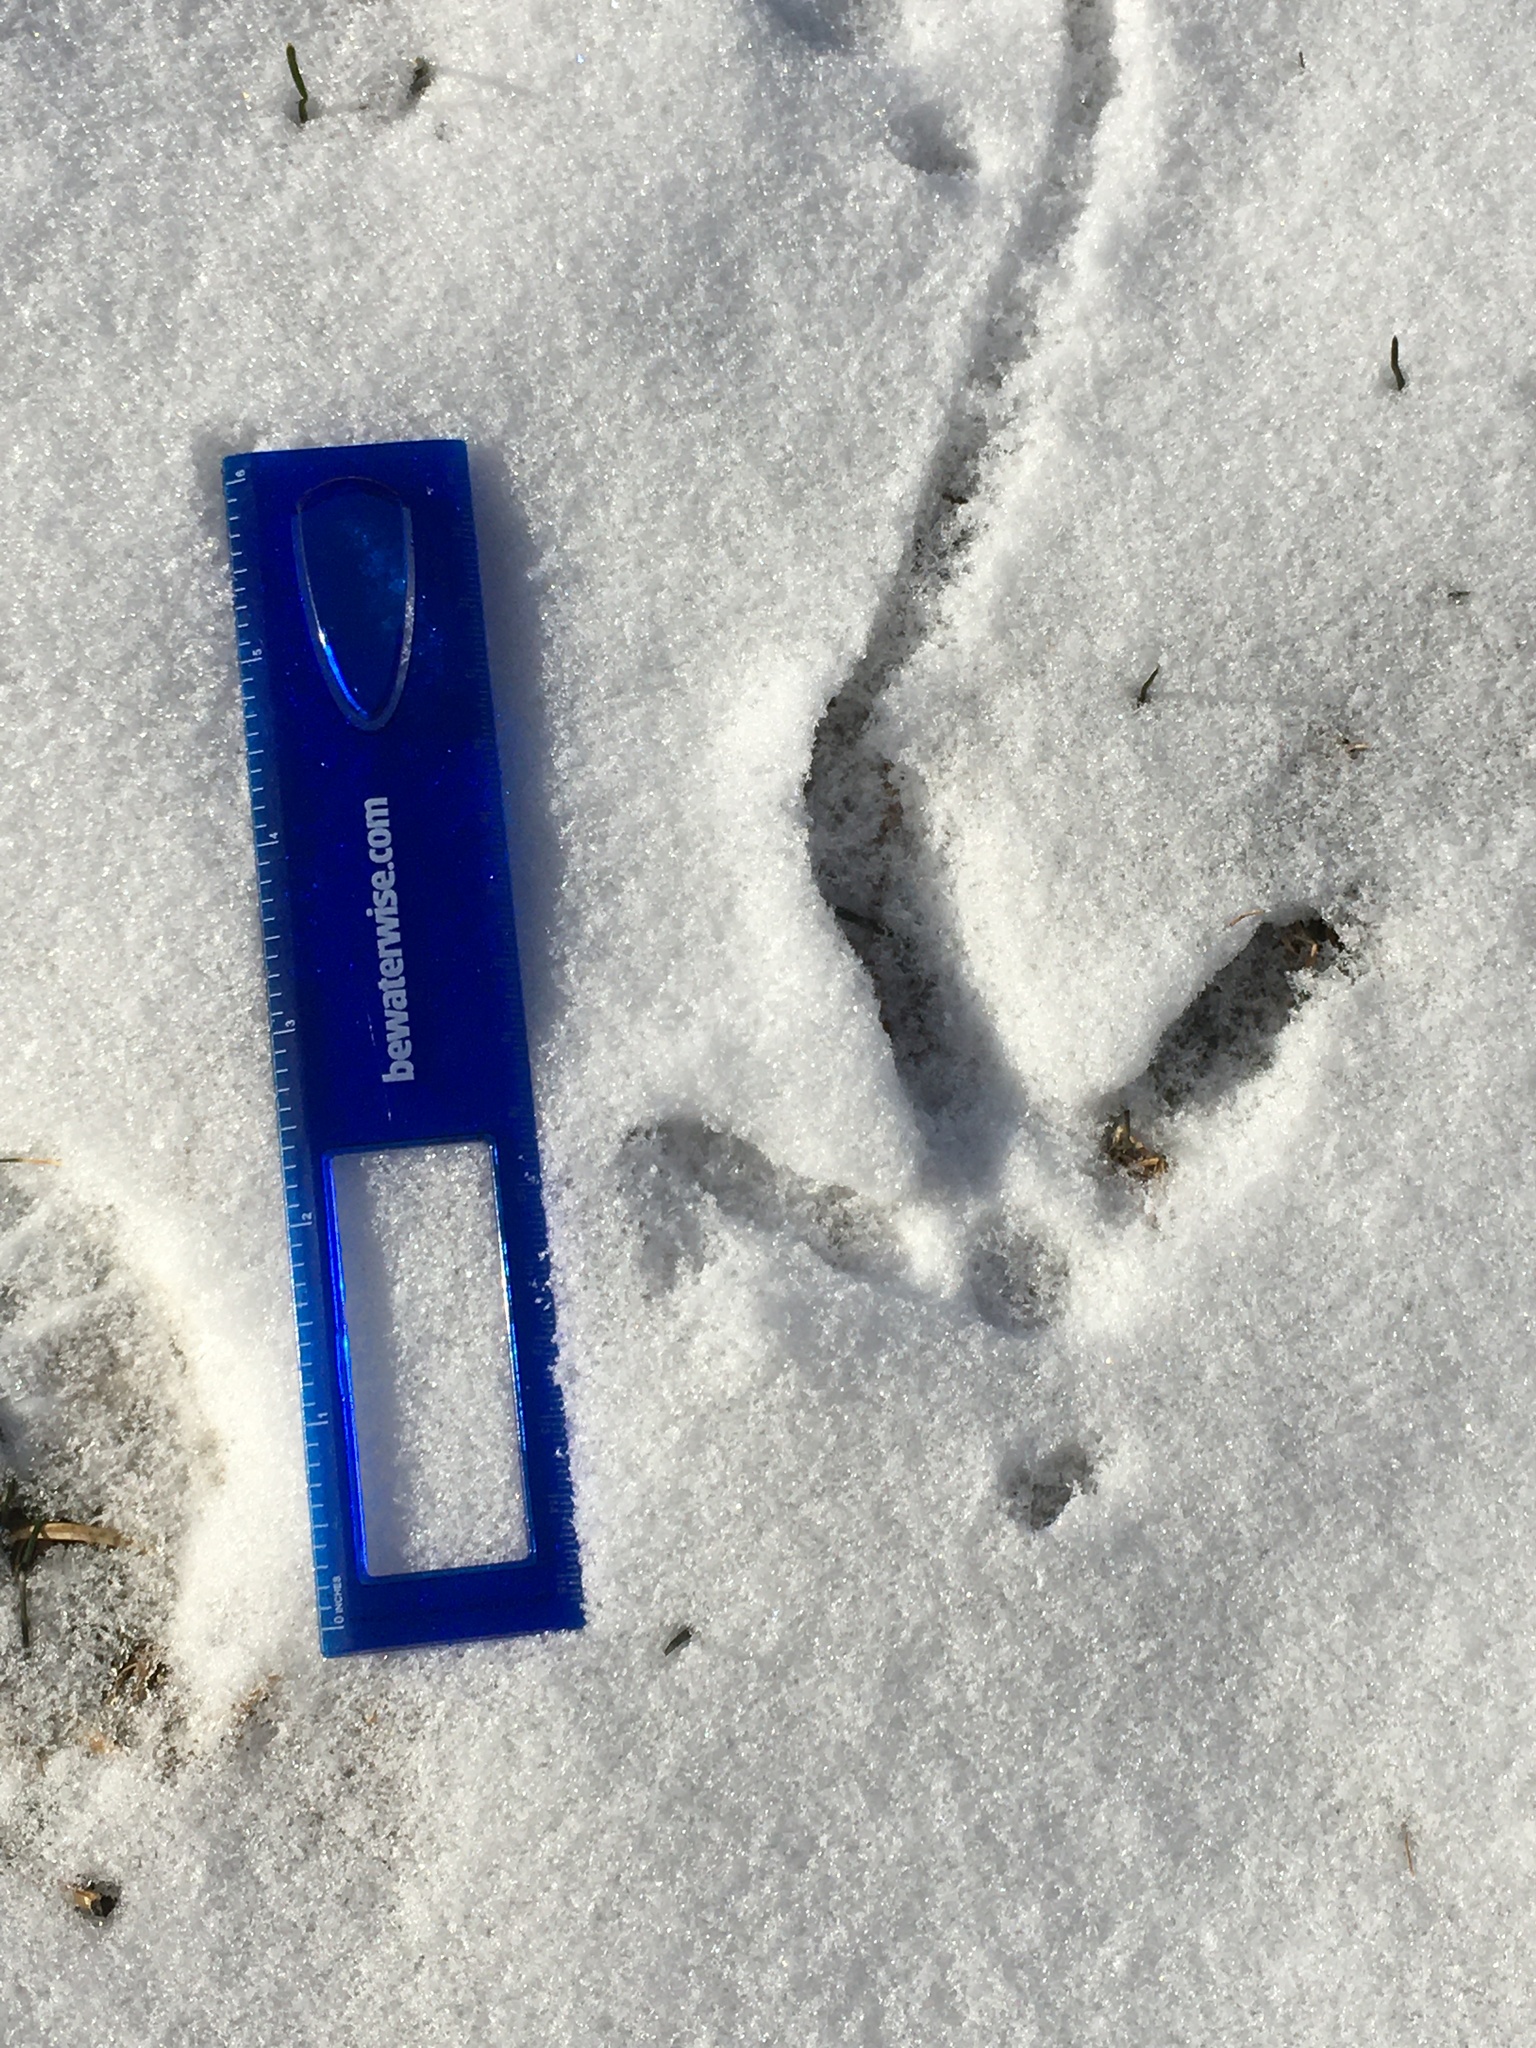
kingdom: Animalia
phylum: Chordata
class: Aves
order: Galliformes
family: Phasianidae
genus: Meleagris
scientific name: Meleagris gallopavo
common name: Wild turkey
